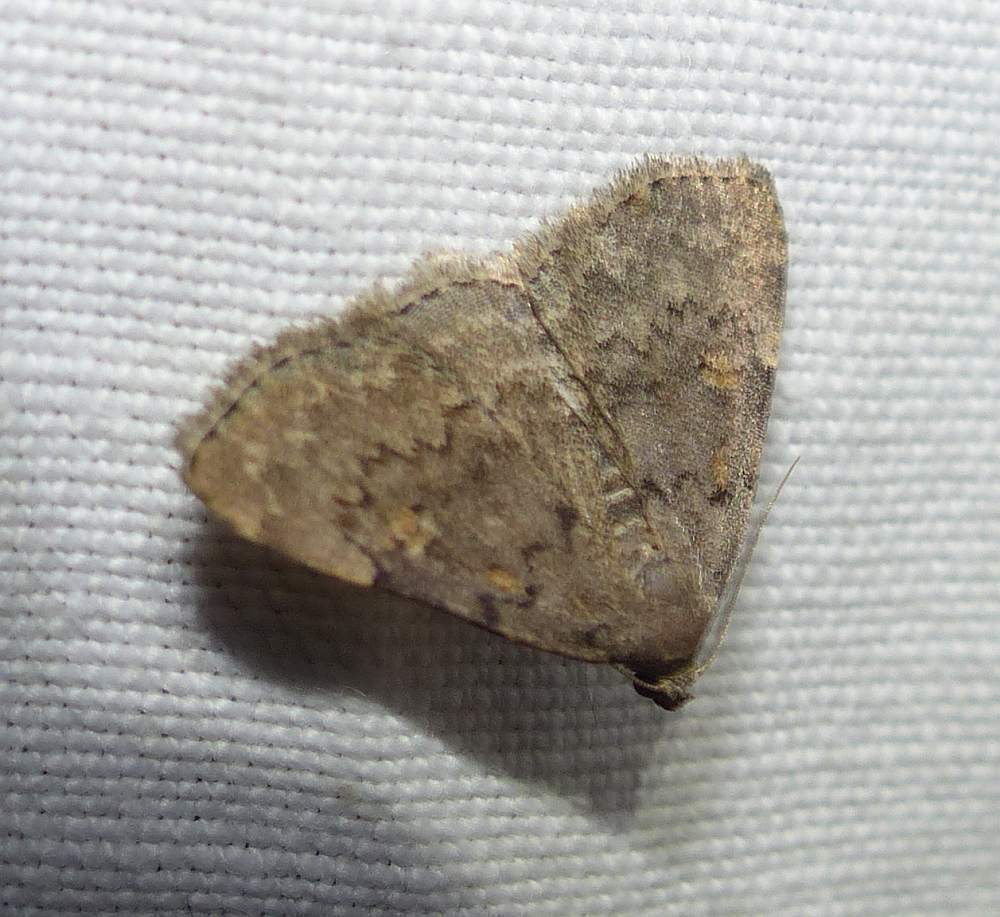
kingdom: Animalia
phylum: Arthropoda
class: Insecta
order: Lepidoptera
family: Erebidae
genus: Idia
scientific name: Idia aemula
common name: Common idia moth
